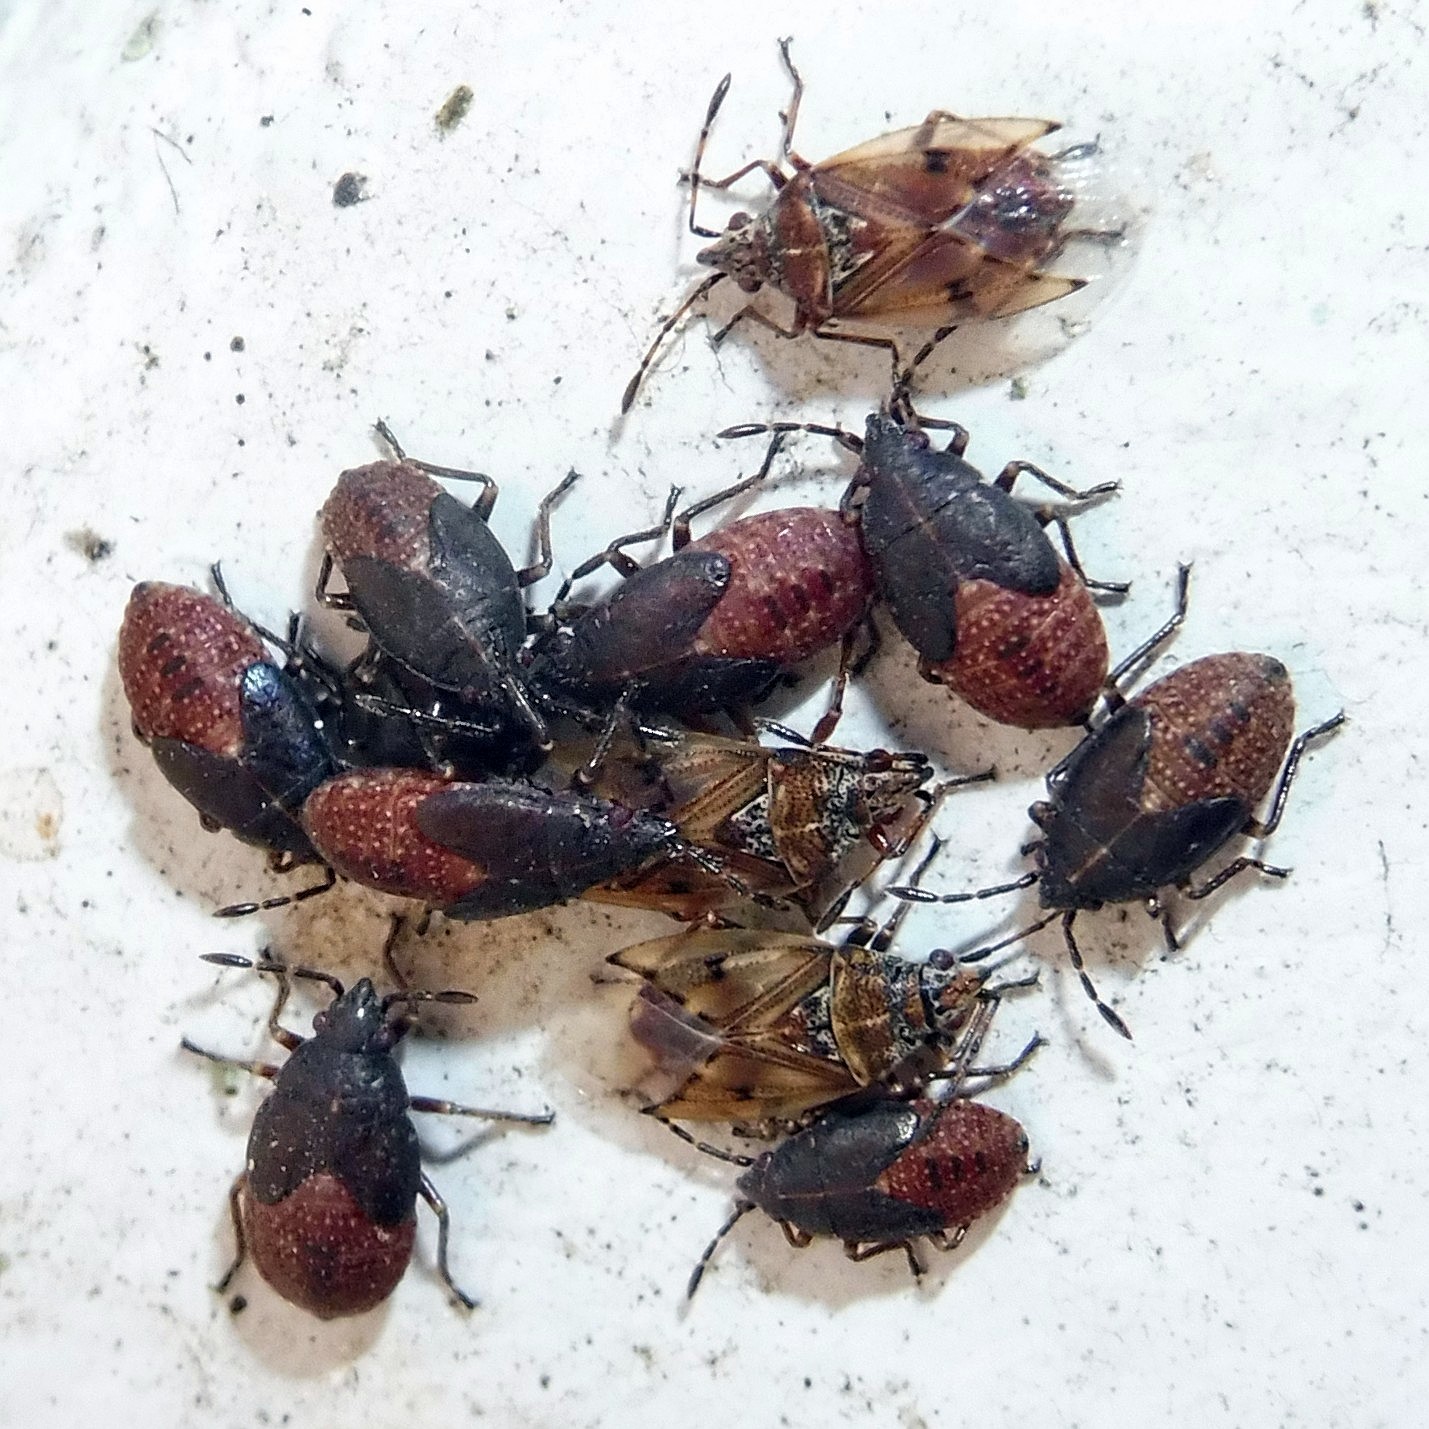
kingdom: Animalia
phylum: Arthropoda
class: Insecta
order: Hemiptera
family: Lygaeidae
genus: Kleidocerys
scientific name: Kleidocerys resedae
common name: Birch catkin bug
